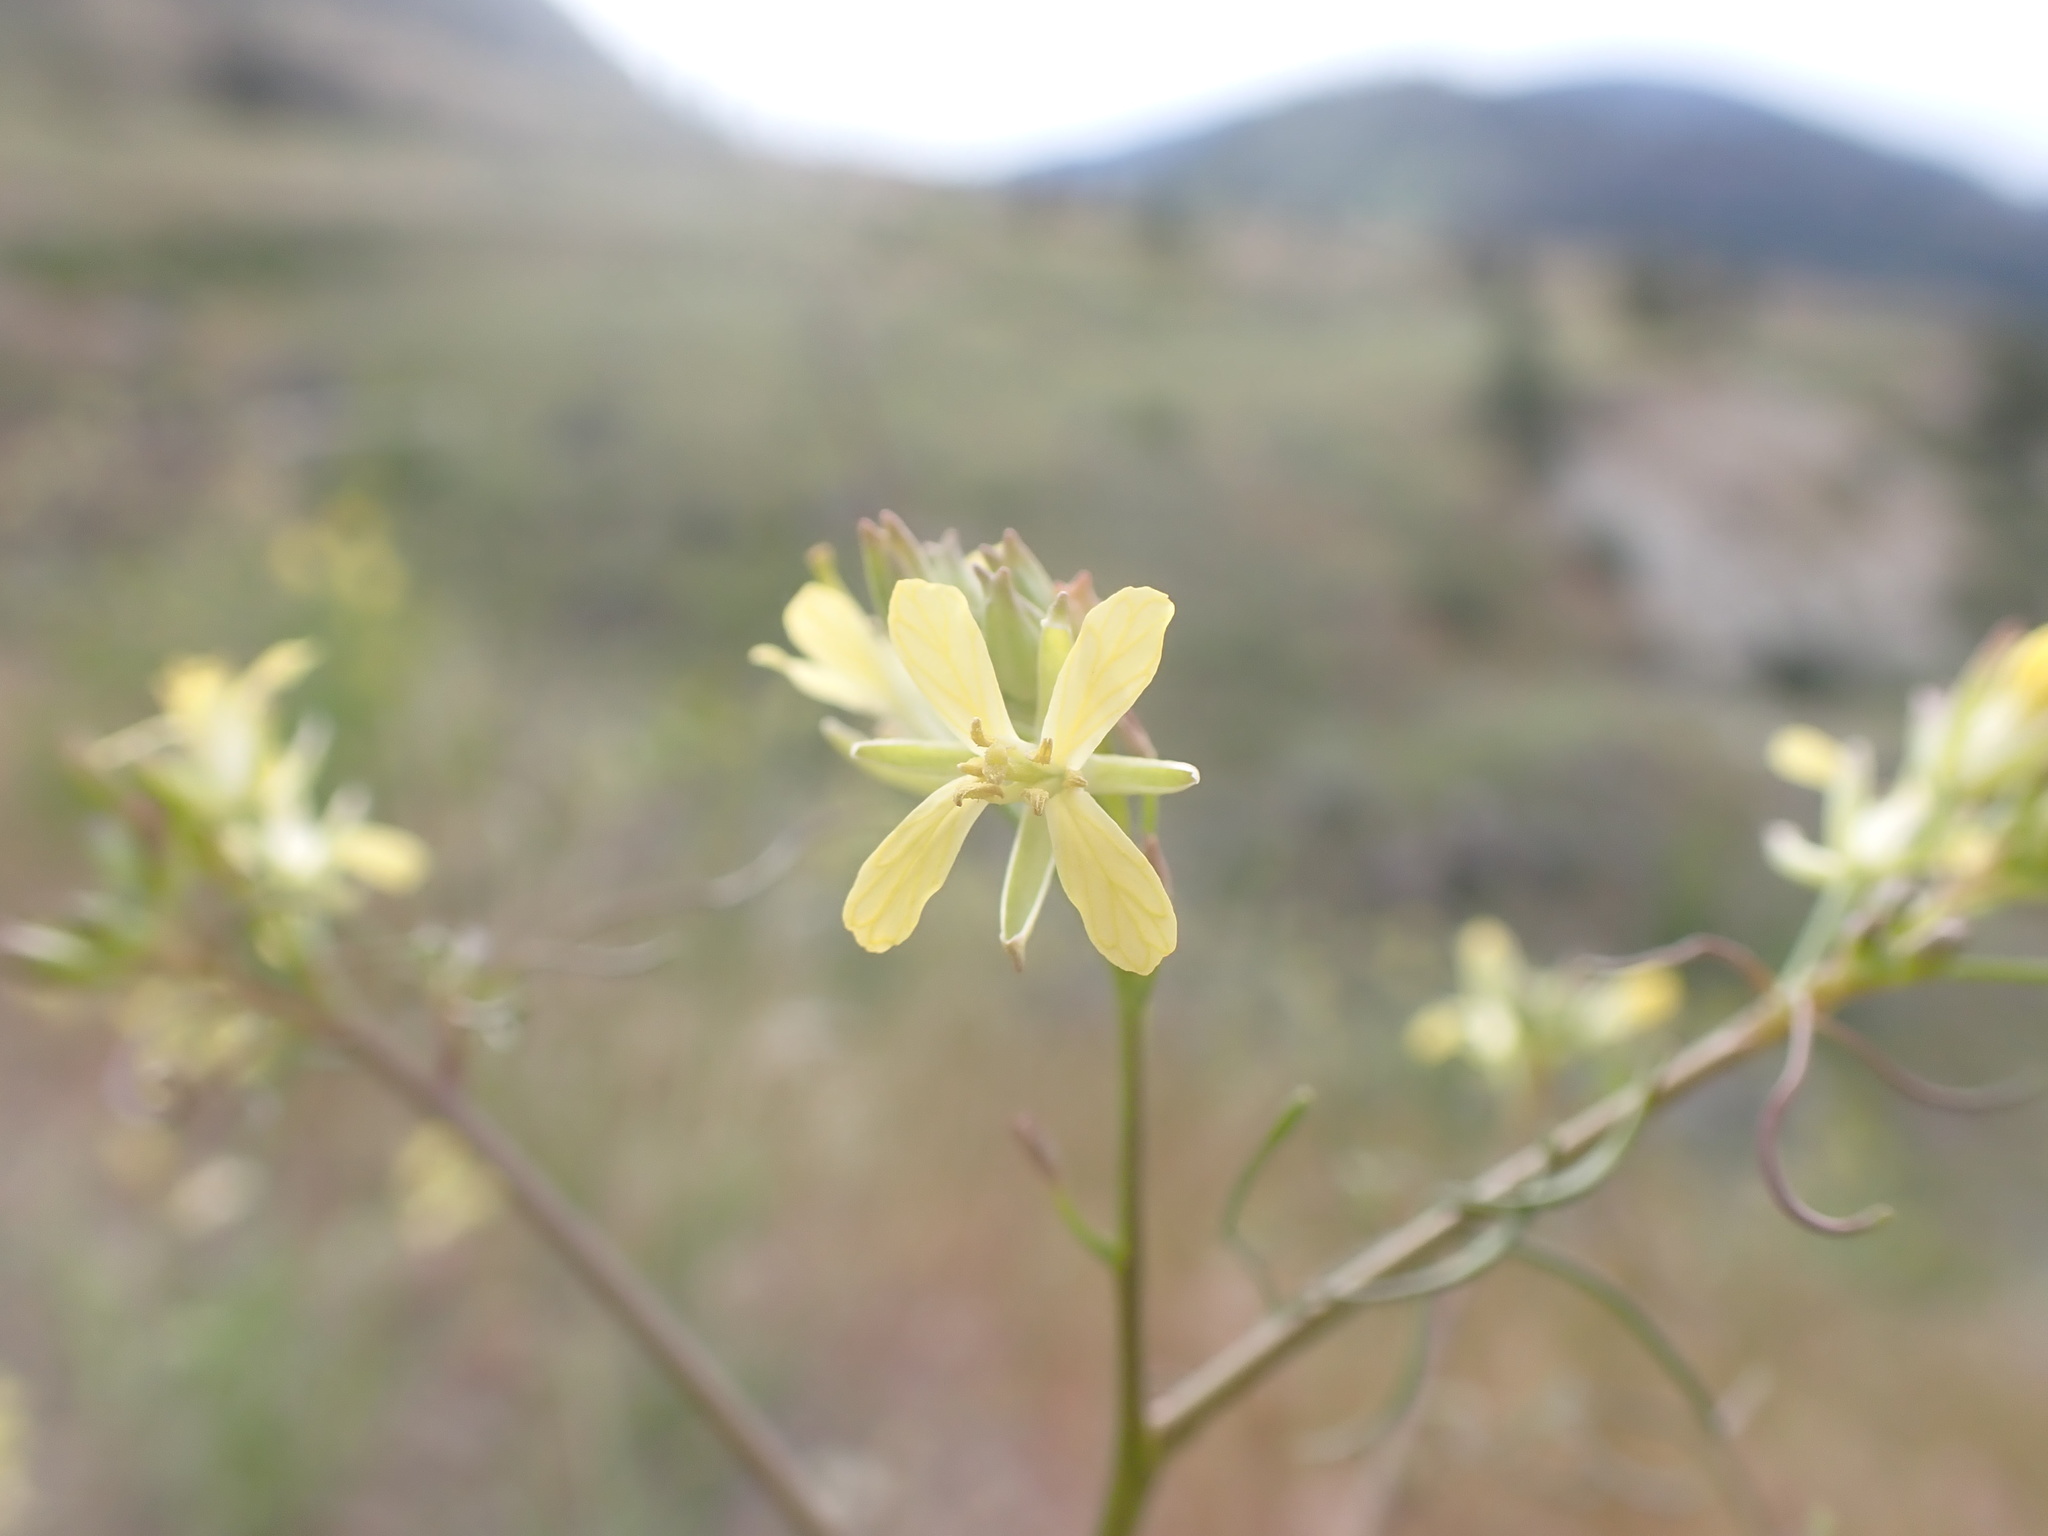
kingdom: Plantae
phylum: Tracheophyta
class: Magnoliopsida
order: Brassicales
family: Brassicaceae
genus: Sisymbrium
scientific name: Sisymbrium altissimum
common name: Tall rocket
